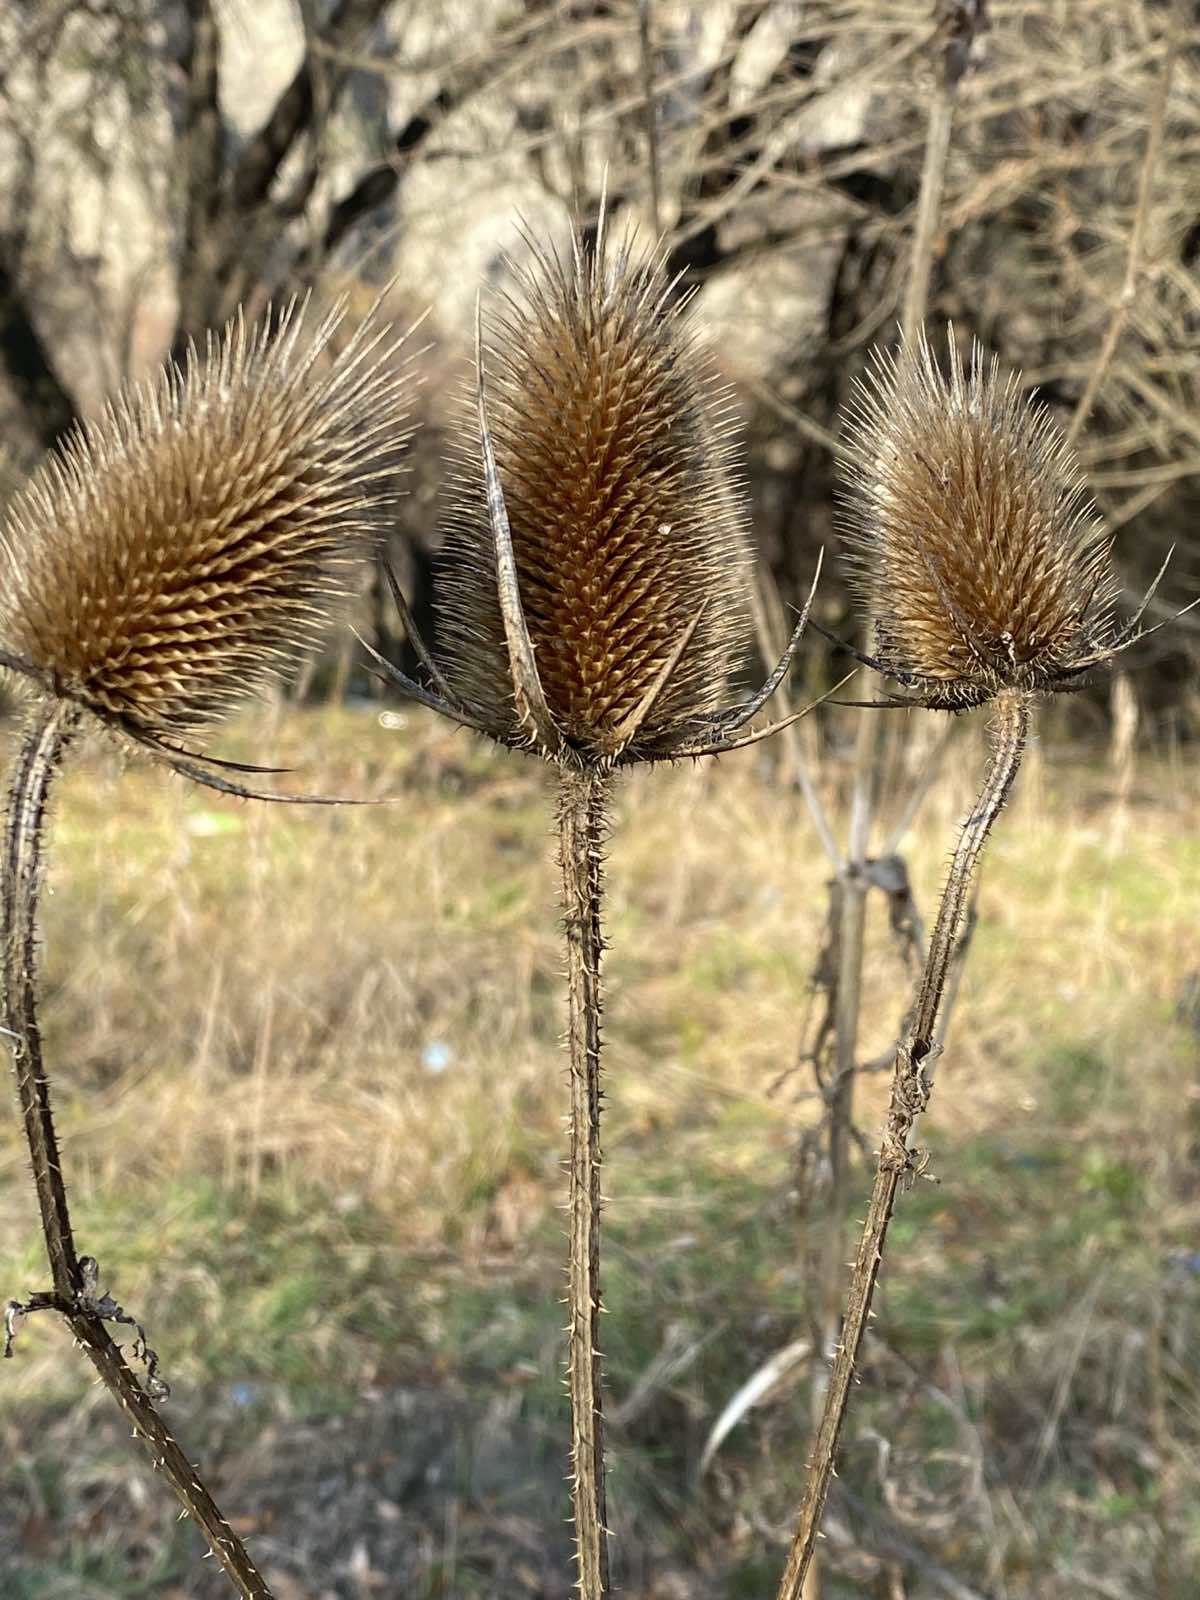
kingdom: Plantae
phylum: Tracheophyta
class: Magnoliopsida
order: Dipsacales
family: Caprifoliaceae
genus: Dipsacus
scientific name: Dipsacus laciniatus
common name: Cut-leaved teasel
